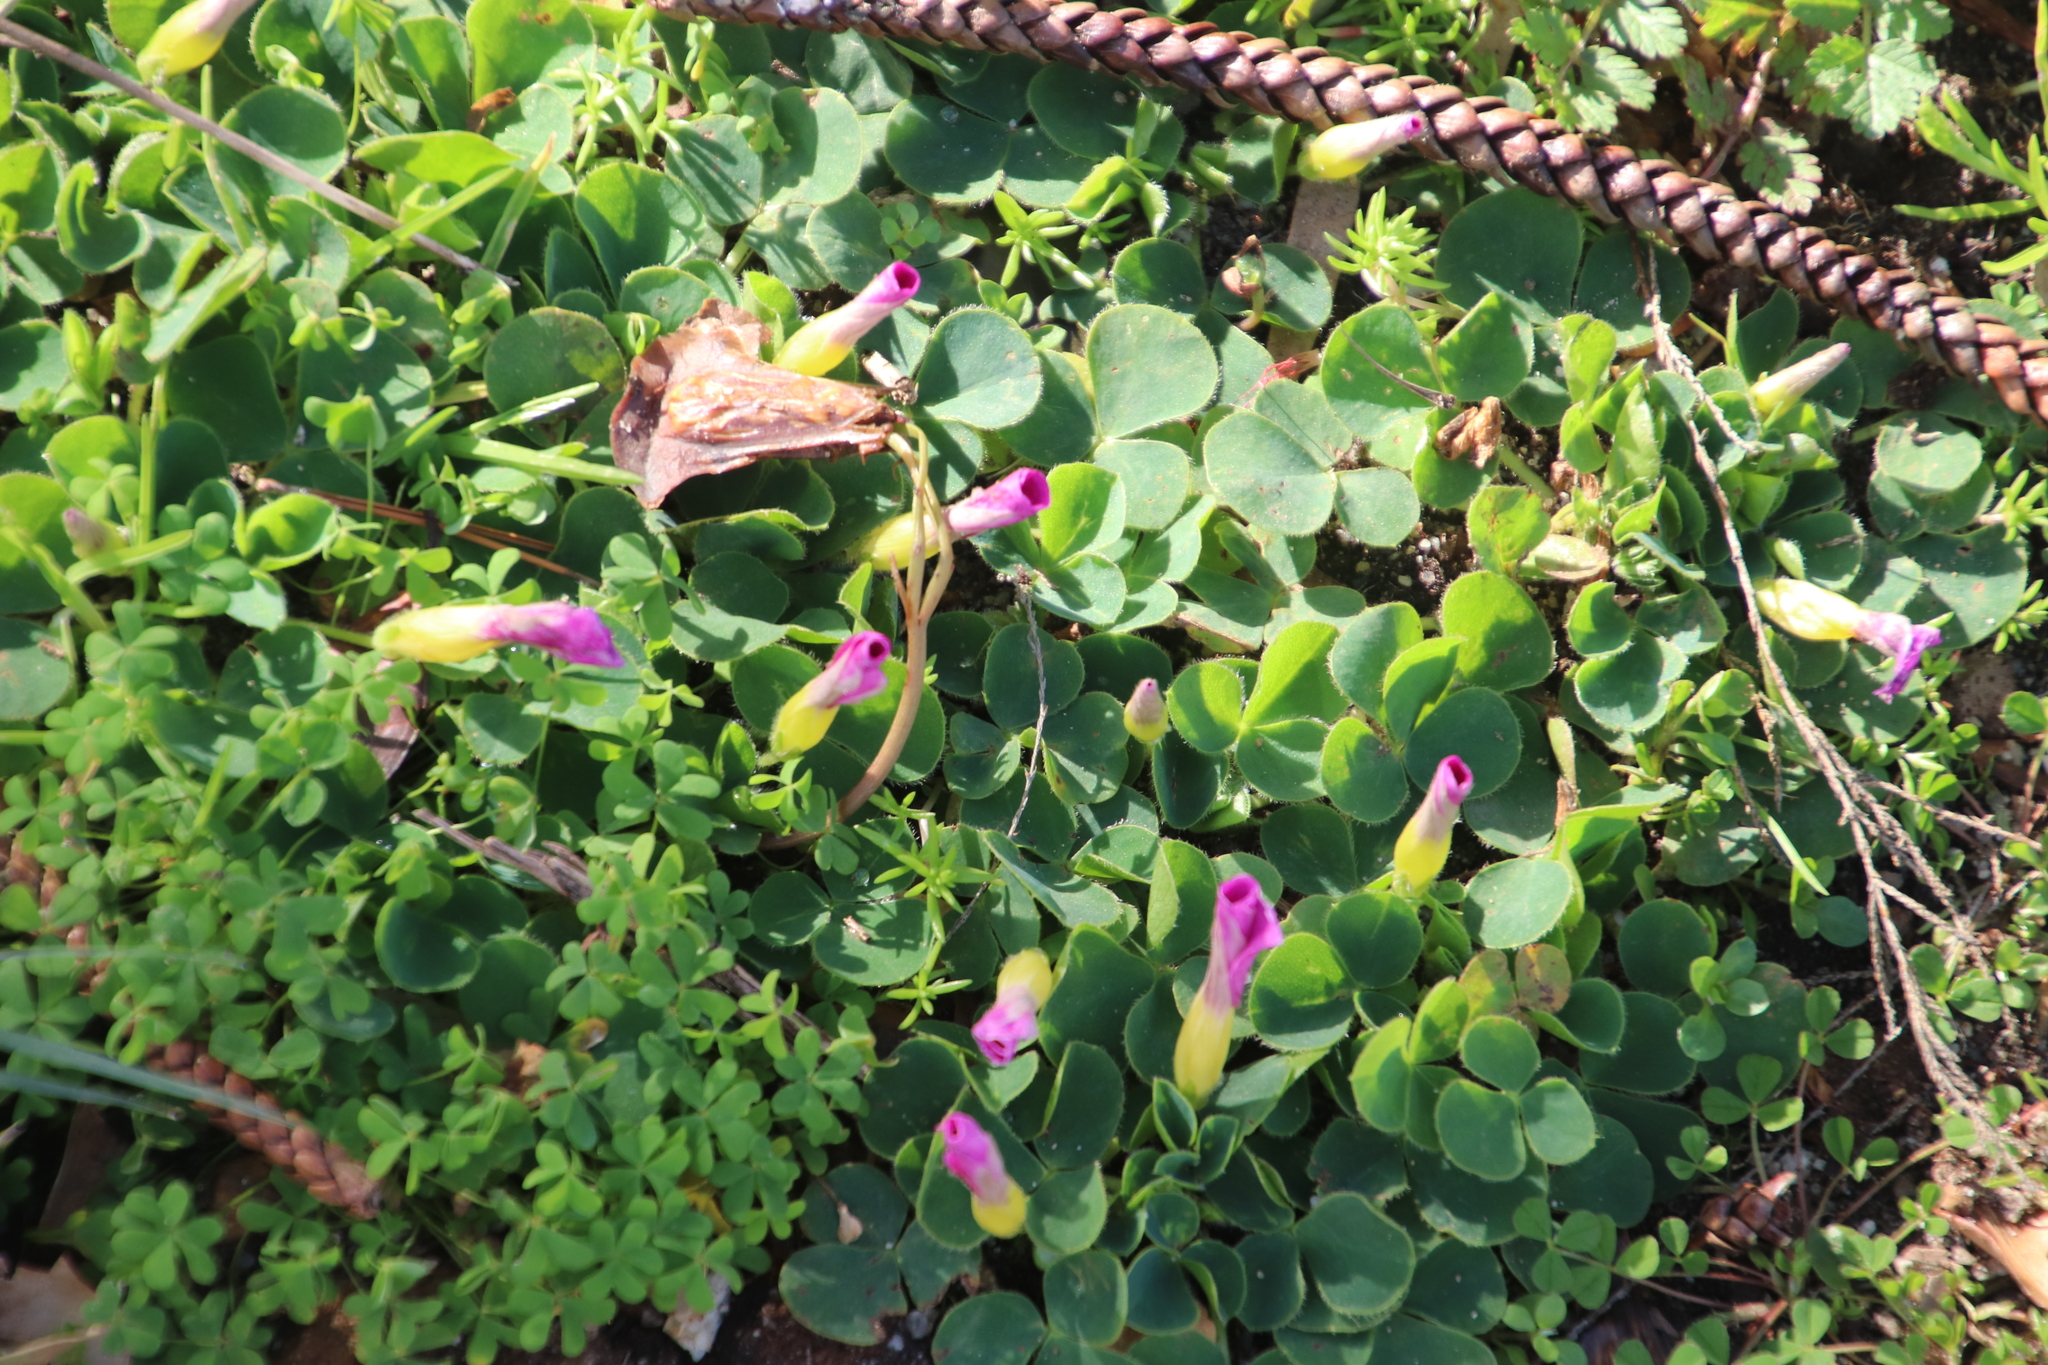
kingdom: Plantae
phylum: Tracheophyta
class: Magnoliopsida
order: Oxalidales
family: Oxalidaceae
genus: Oxalis
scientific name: Oxalis purpurea
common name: Purple woodsorrel
